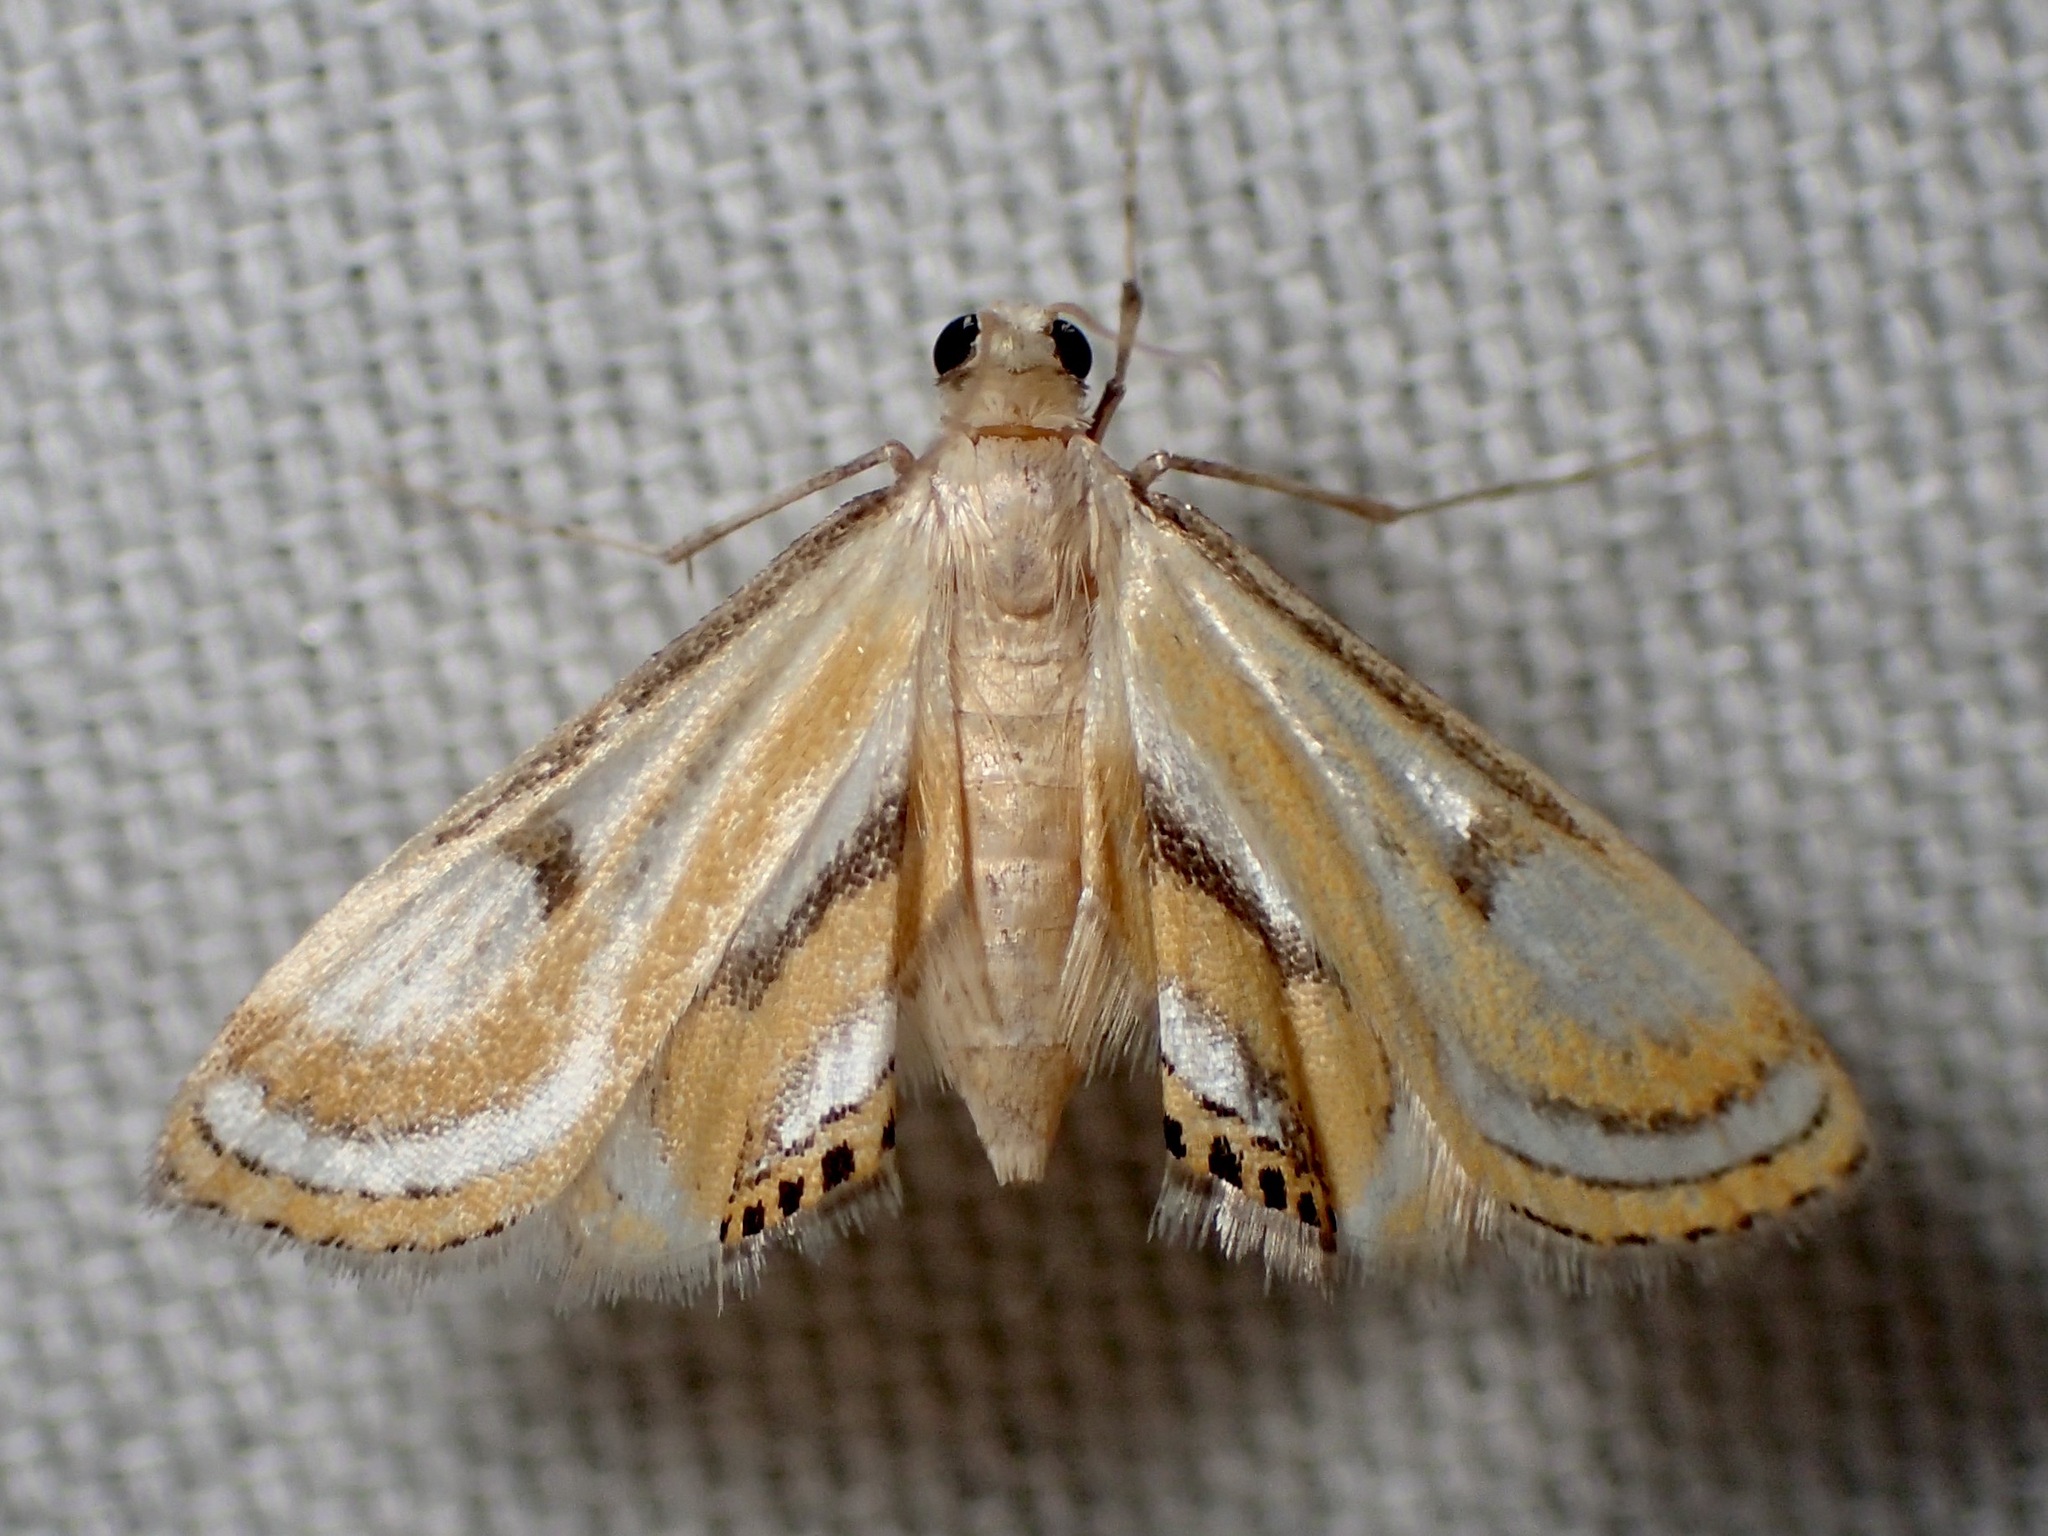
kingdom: Animalia
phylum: Arthropoda
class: Insecta
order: Lepidoptera
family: Crambidae
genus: Tetrernia
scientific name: Tetrernia teminitis
